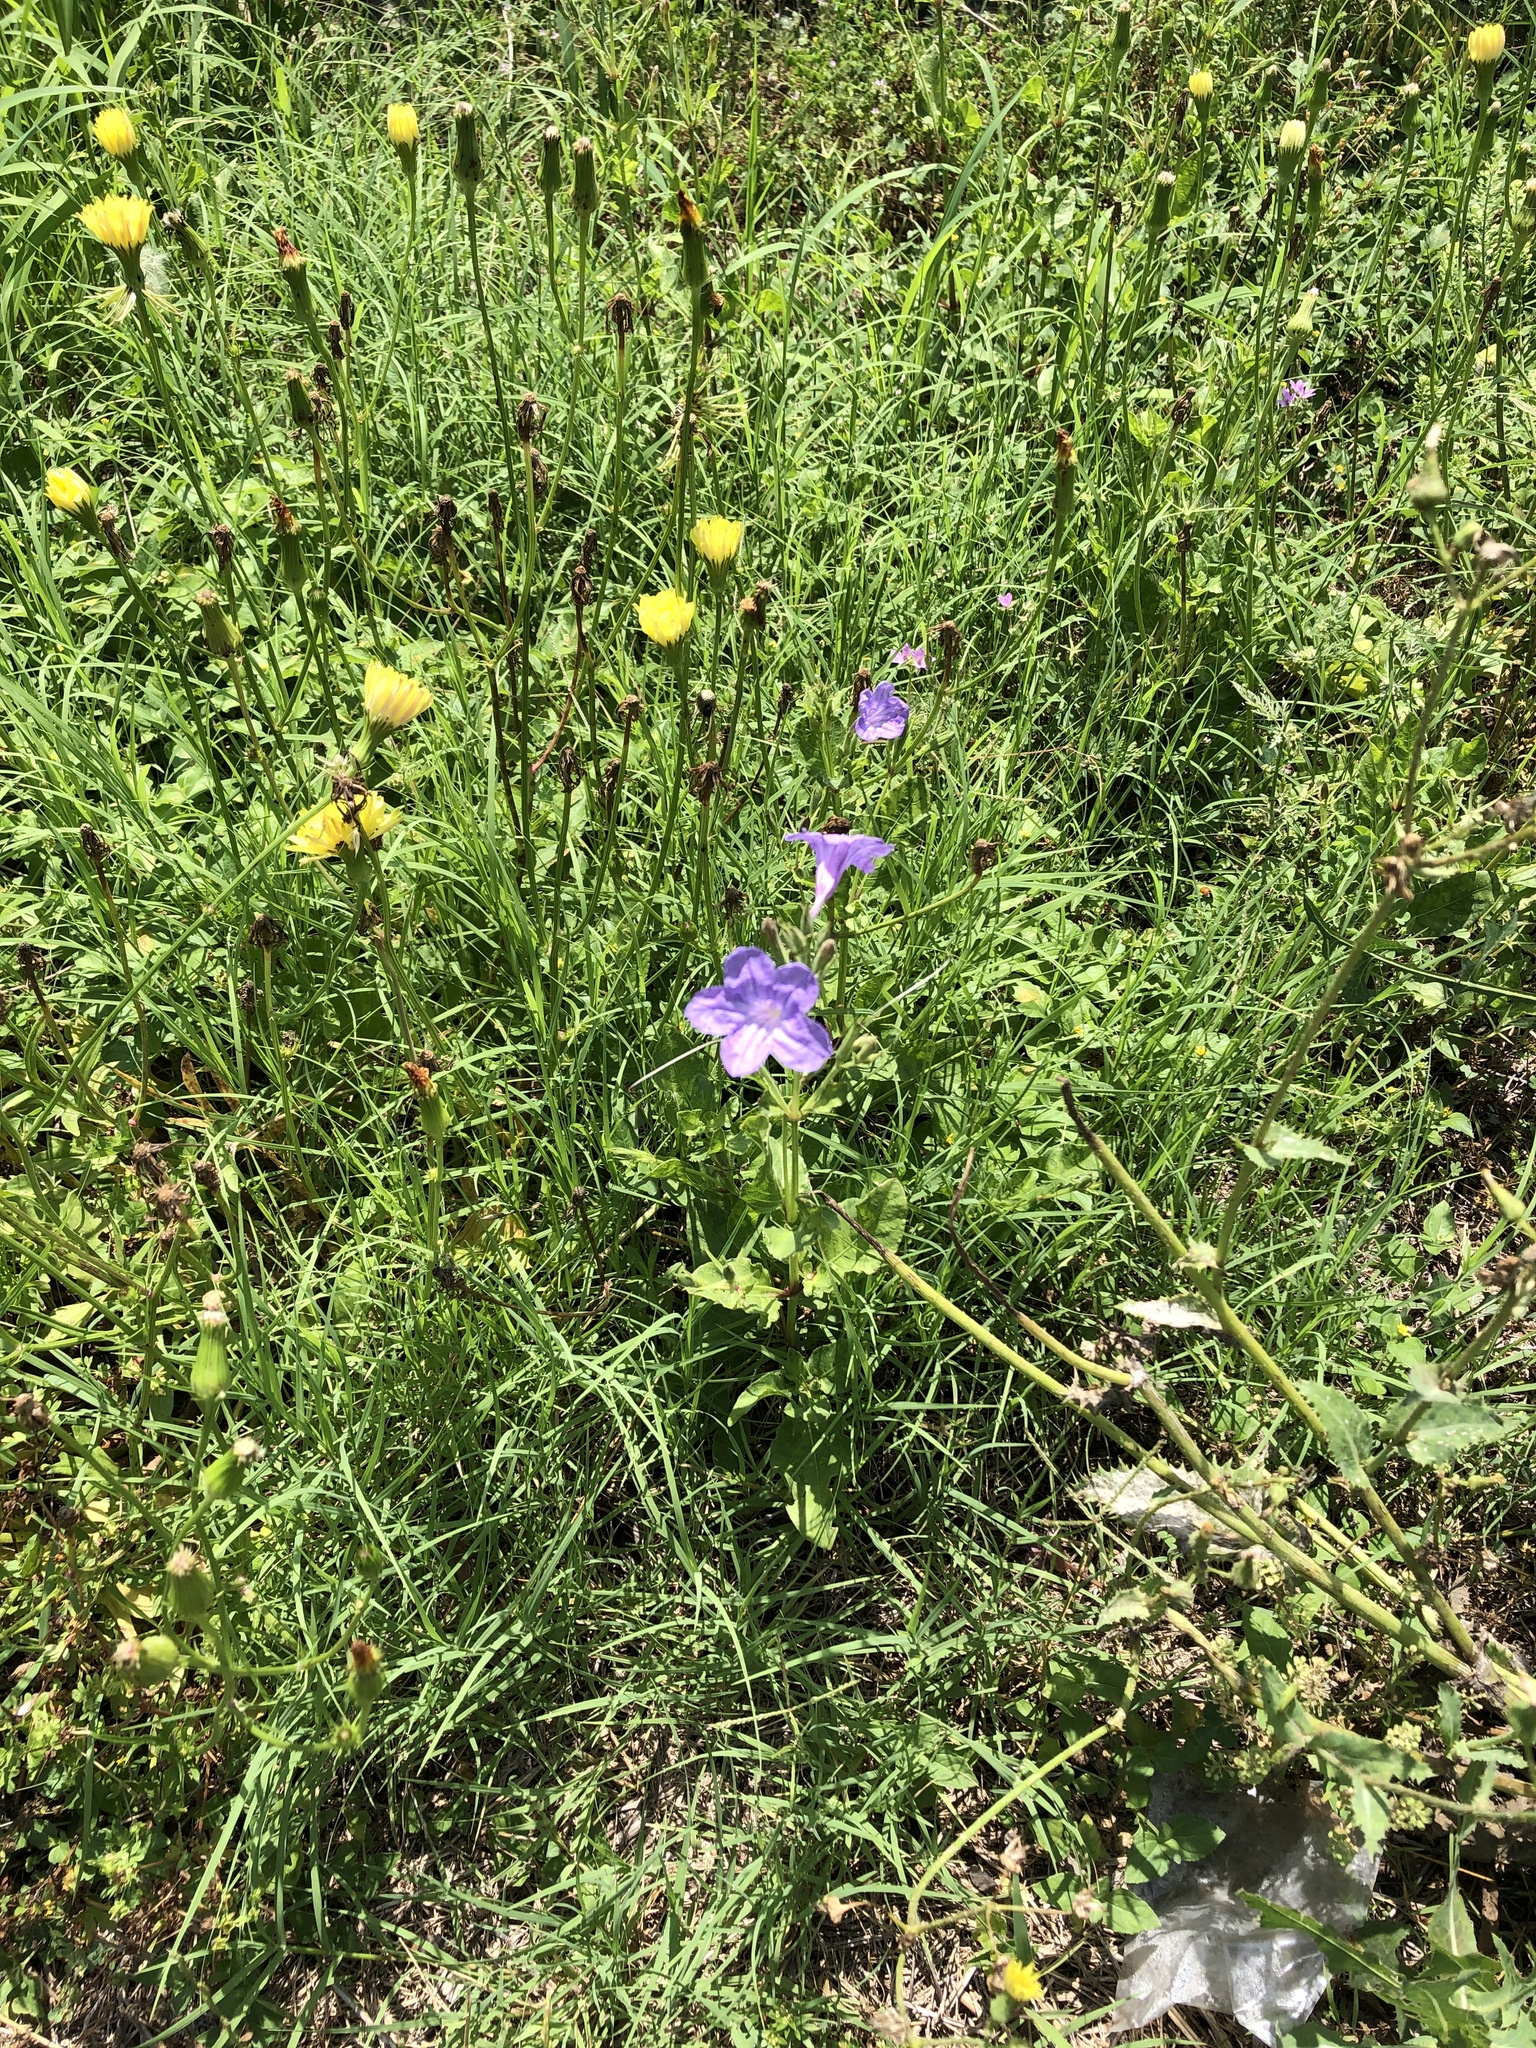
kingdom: Plantae
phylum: Tracheophyta
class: Magnoliopsida
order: Lamiales
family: Acanthaceae
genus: Ruellia
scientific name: Ruellia ciliatiflora
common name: Hairyflower wild petunia
